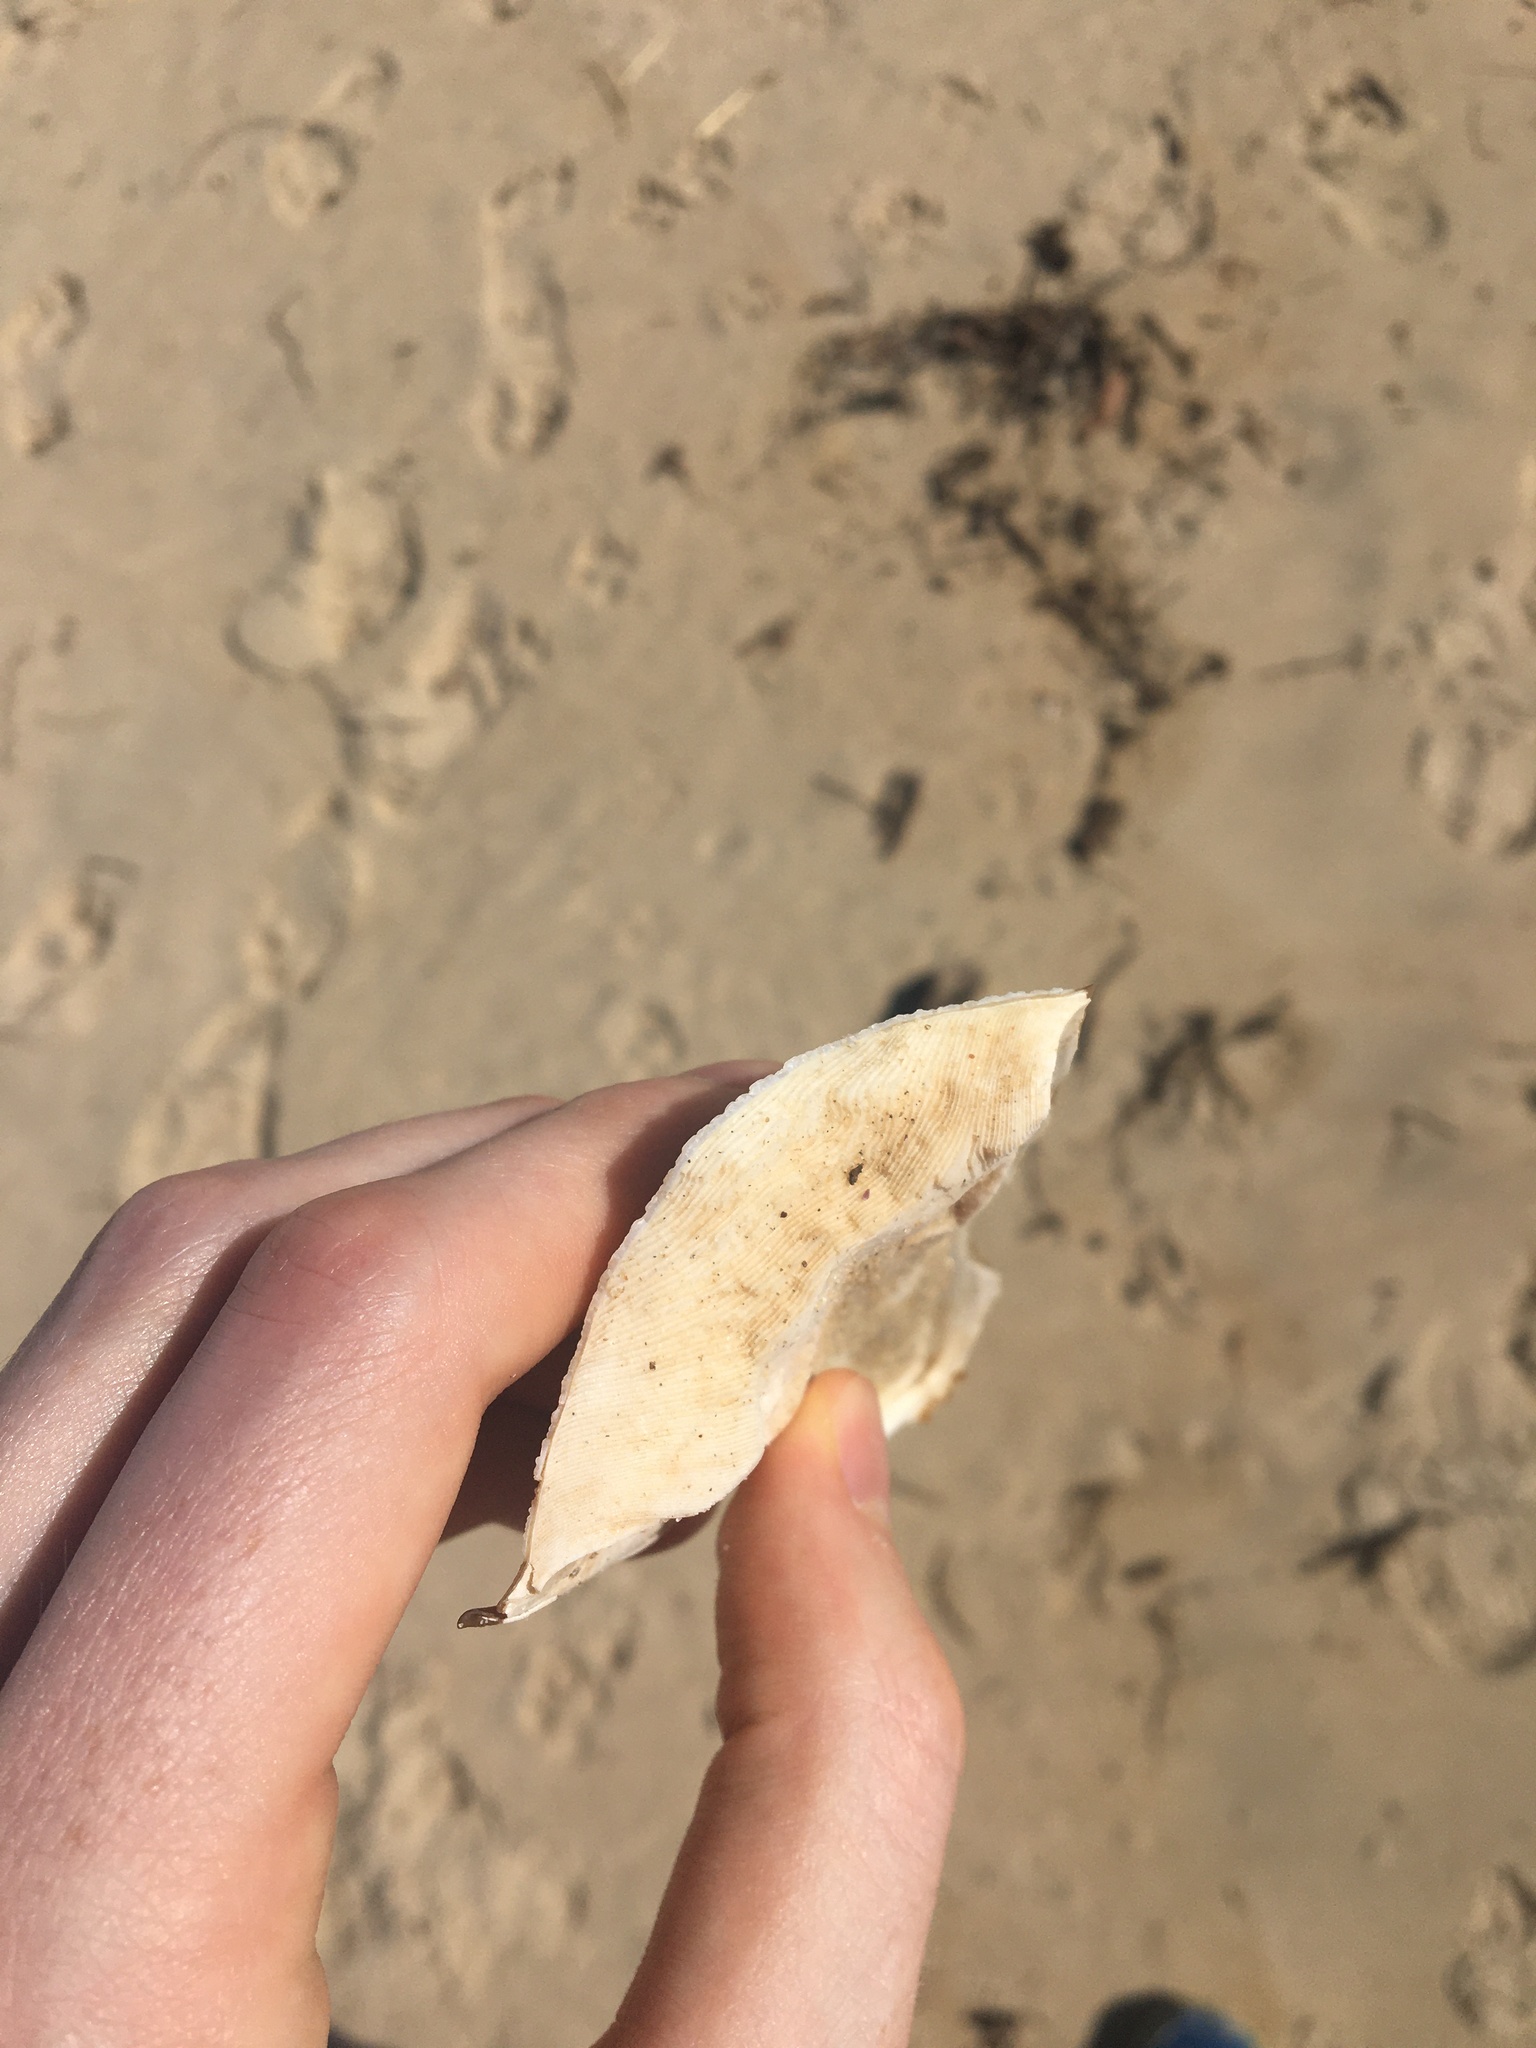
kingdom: Animalia
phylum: Mollusca
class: Cephalopoda
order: Sepiida
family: Sepiidae
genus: Ascarosepion
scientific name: Ascarosepion apama
